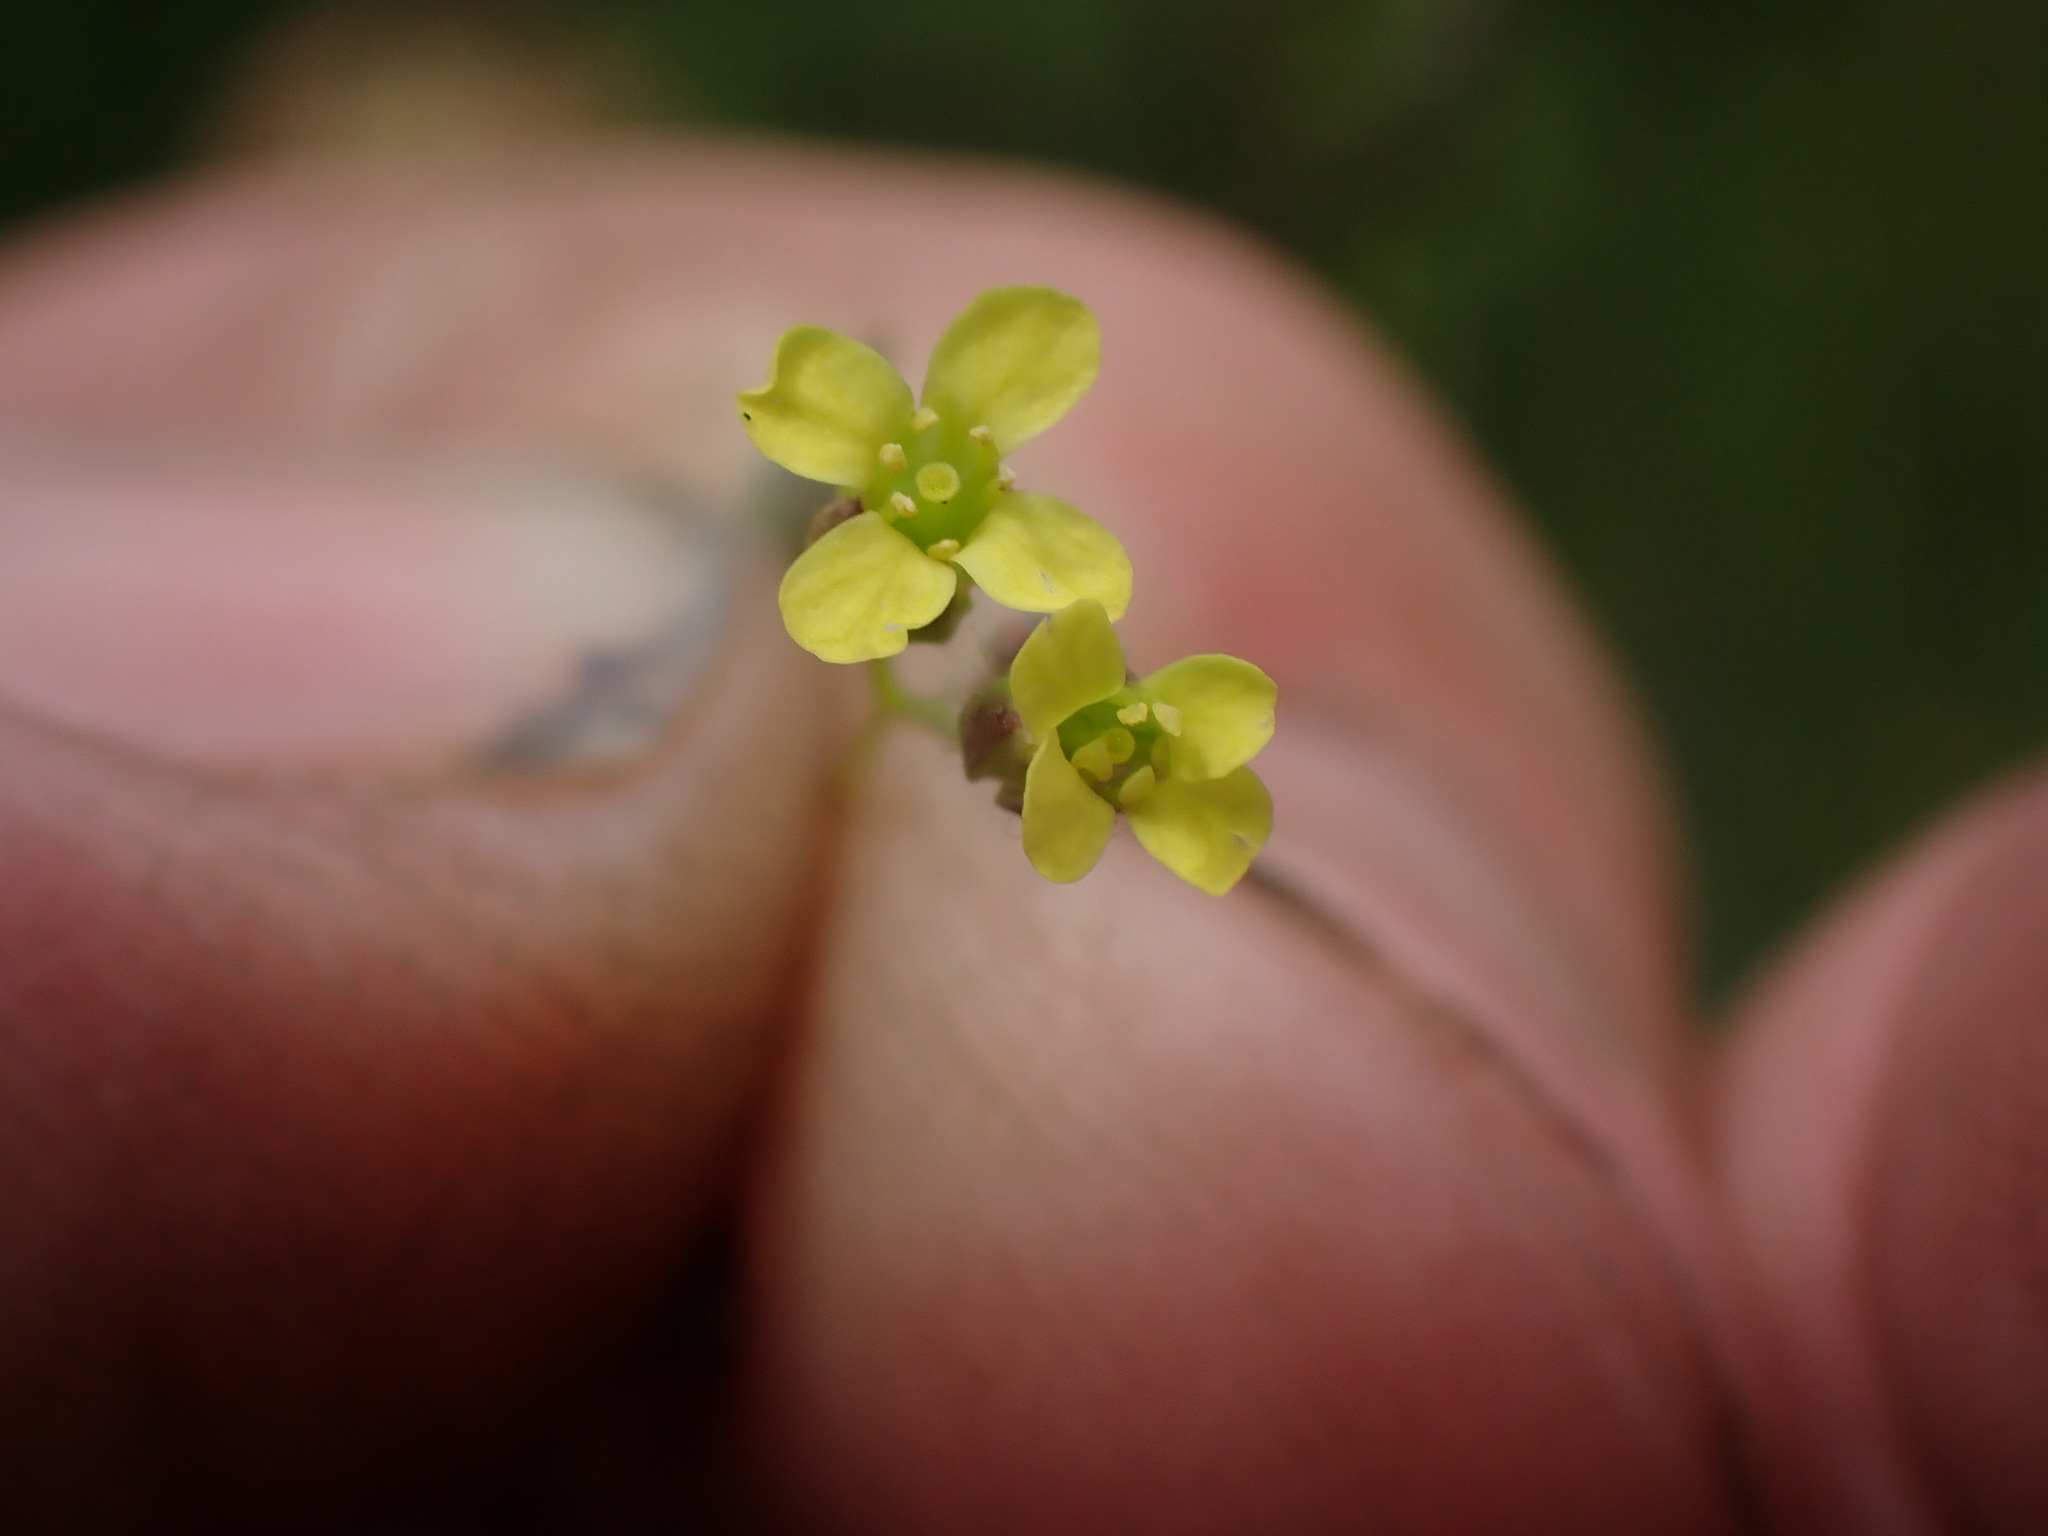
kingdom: Plantae
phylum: Tracheophyta
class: Magnoliopsida
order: Brassicales
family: Brassicaceae
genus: Camelina
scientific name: Camelina microcarpa
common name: Lesser gold-of-pleasure
